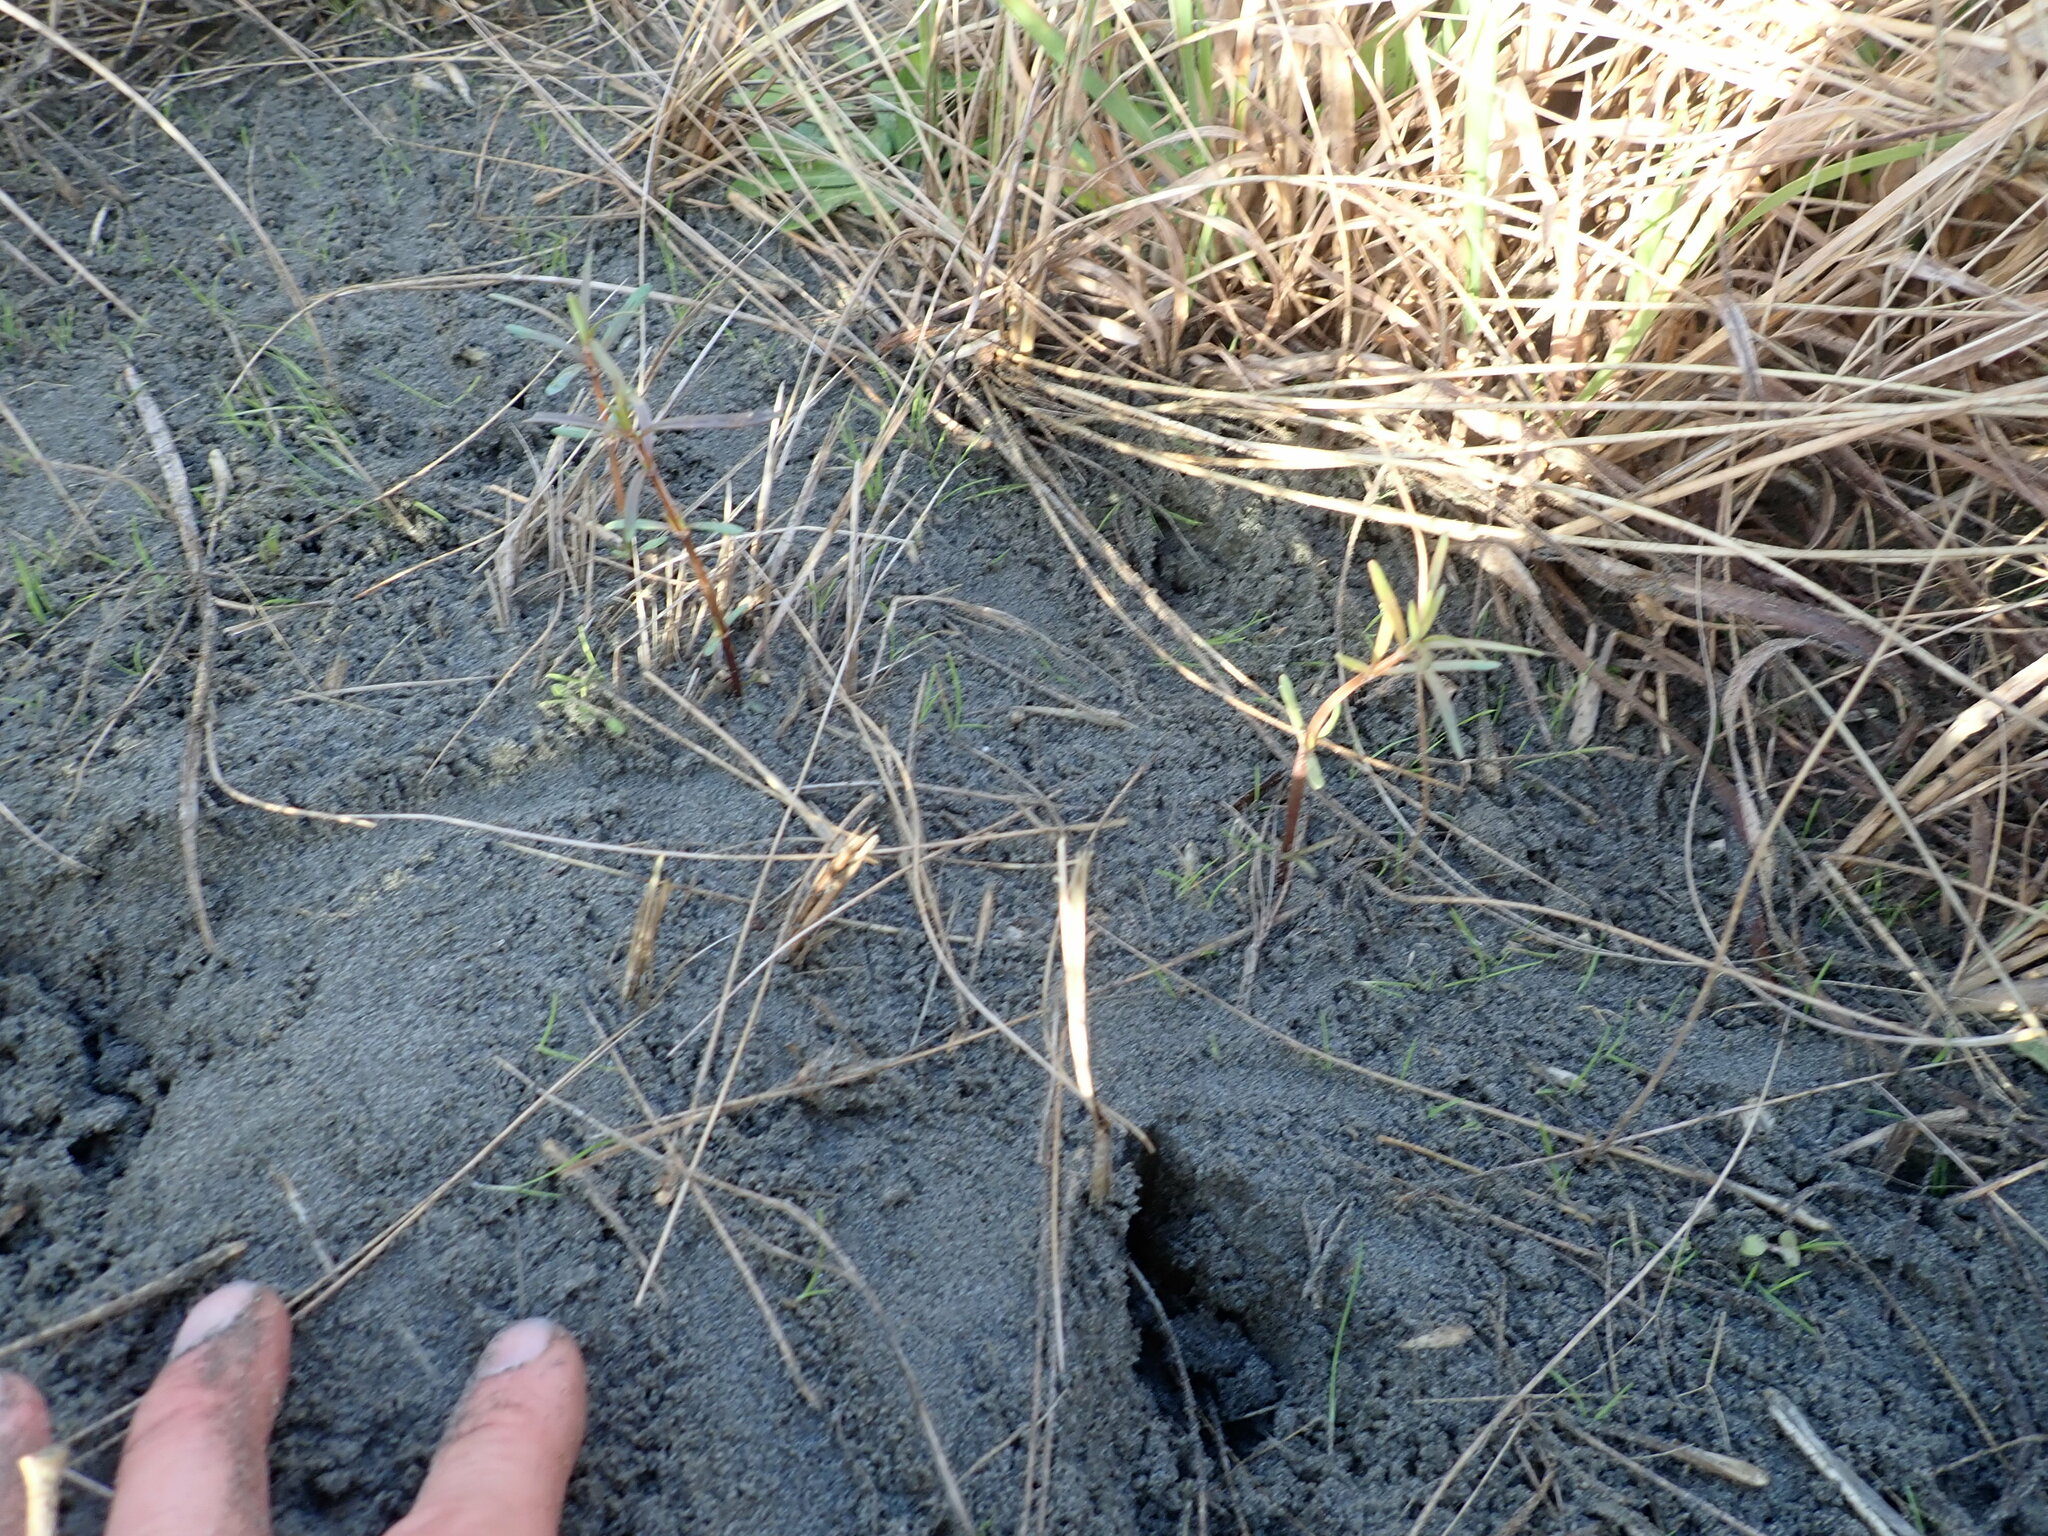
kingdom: Plantae
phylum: Tracheophyta
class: Magnoliopsida
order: Gentianales
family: Rubiaceae
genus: Coprosma
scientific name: Coprosma acerosa
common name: Sand coprosma
